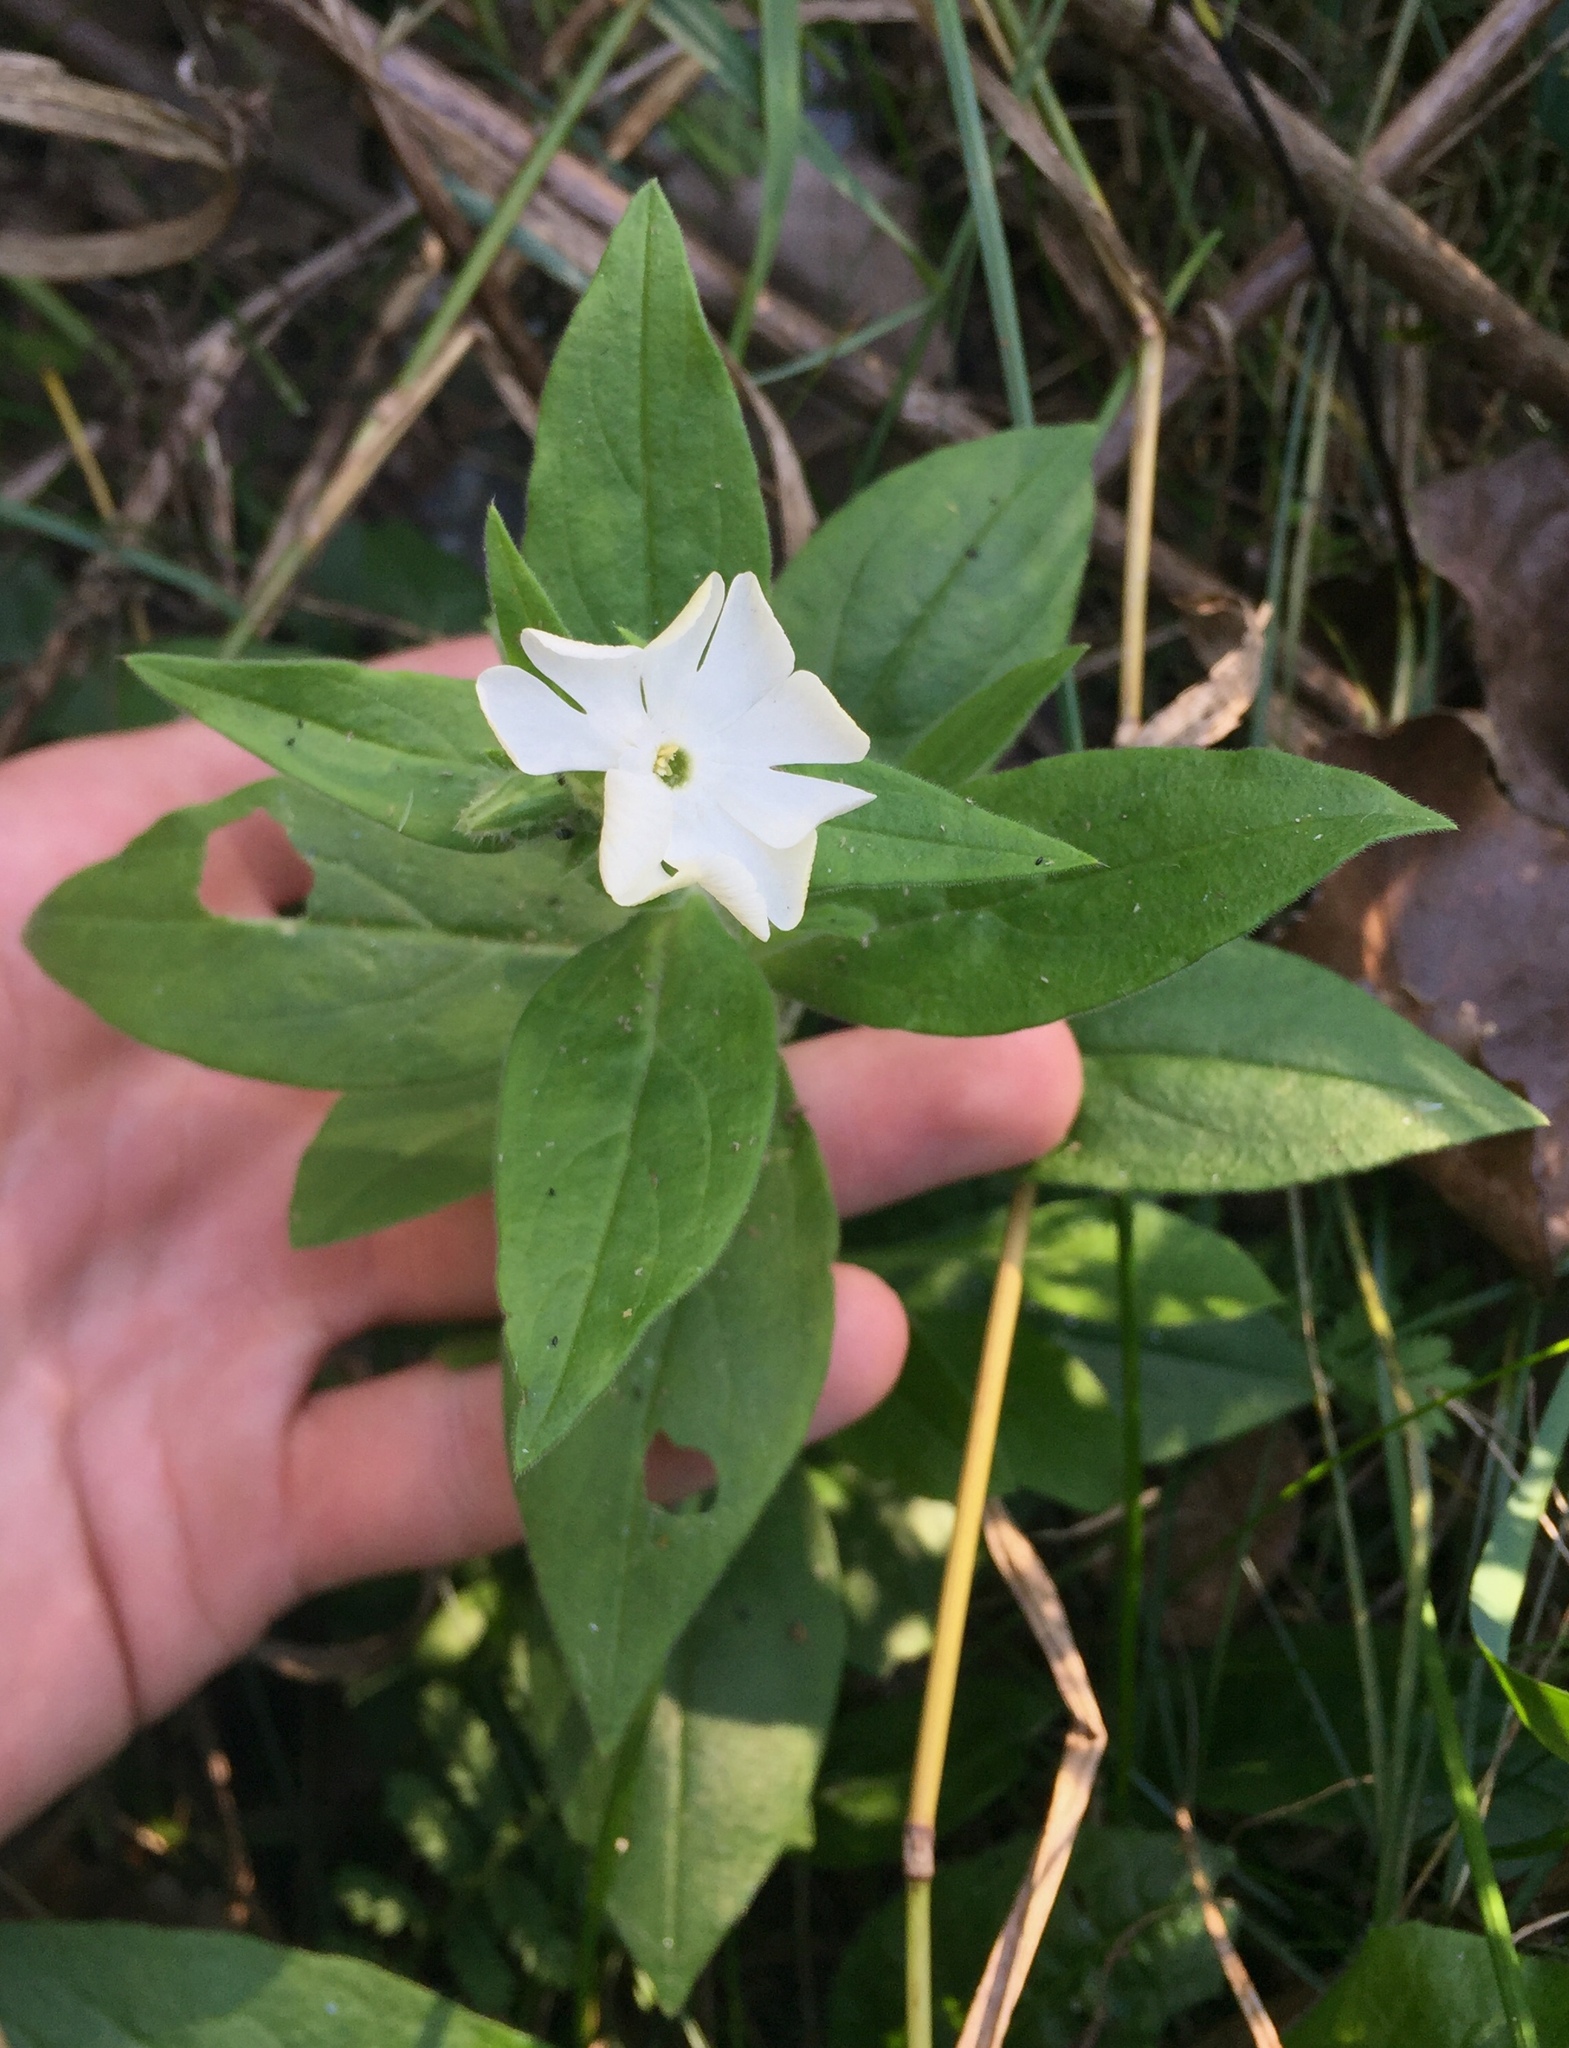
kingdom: Plantae
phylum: Tracheophyta
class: Magnoliopsida
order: Caryophyllales
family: Caryophyllaceae
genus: Silene
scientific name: Silene latifolia
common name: White campion
